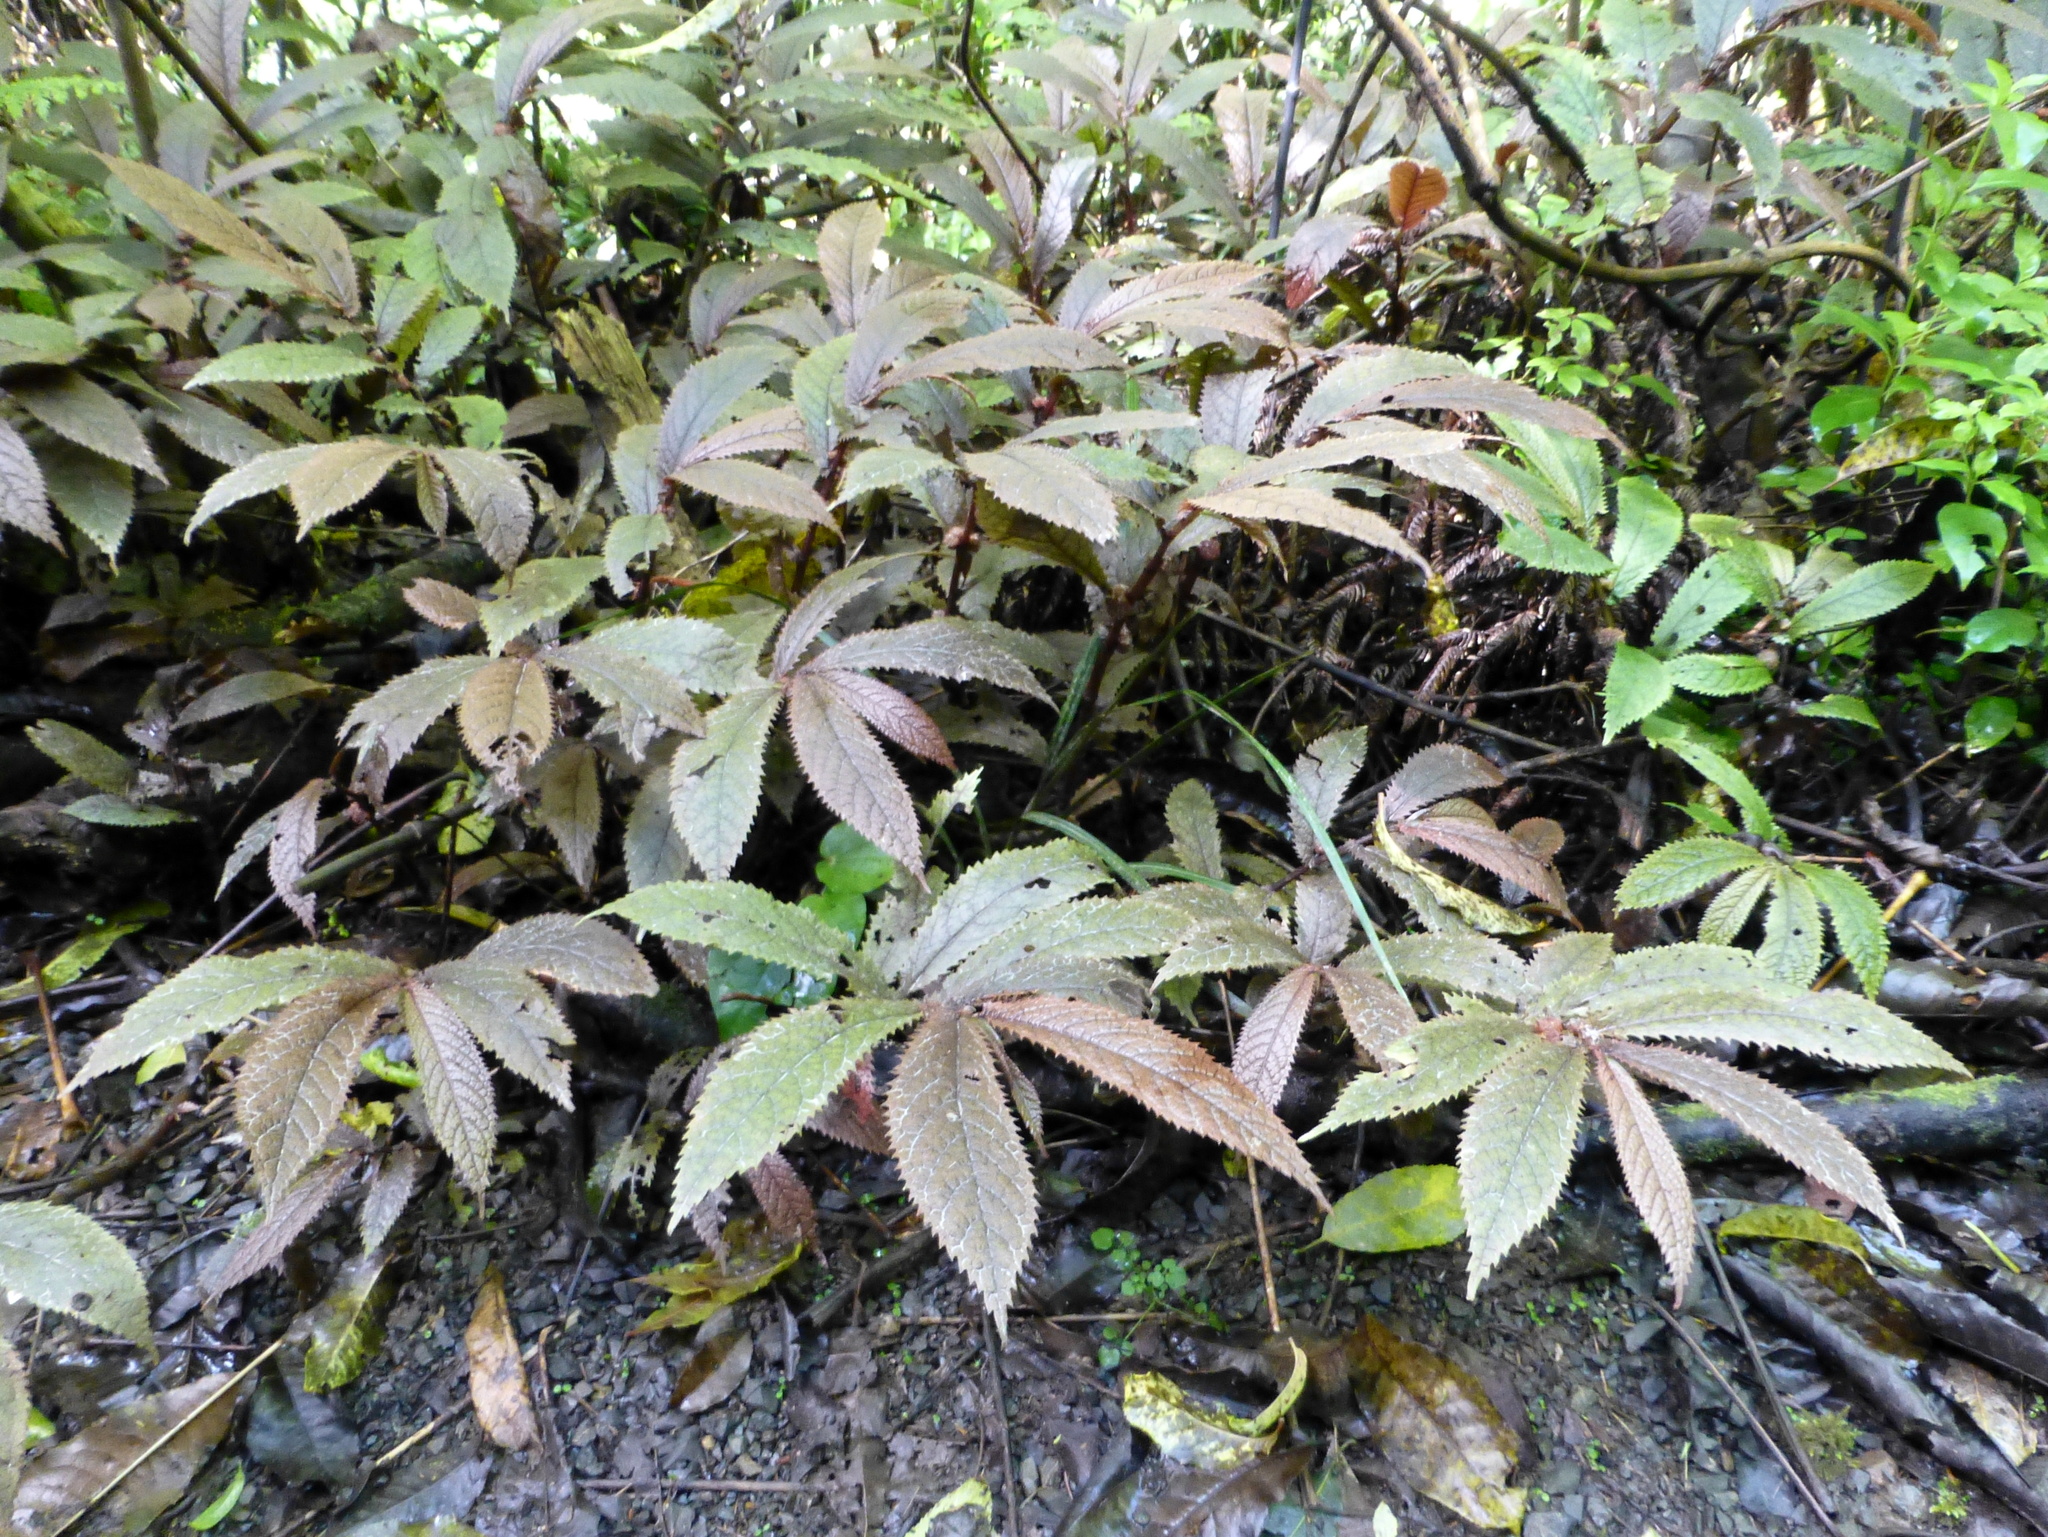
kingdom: Plantae
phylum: Tracheophyta
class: Magnoliopsida
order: Rosales
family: Urticaceae
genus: Elatostema
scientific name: Elatostema rugosum
